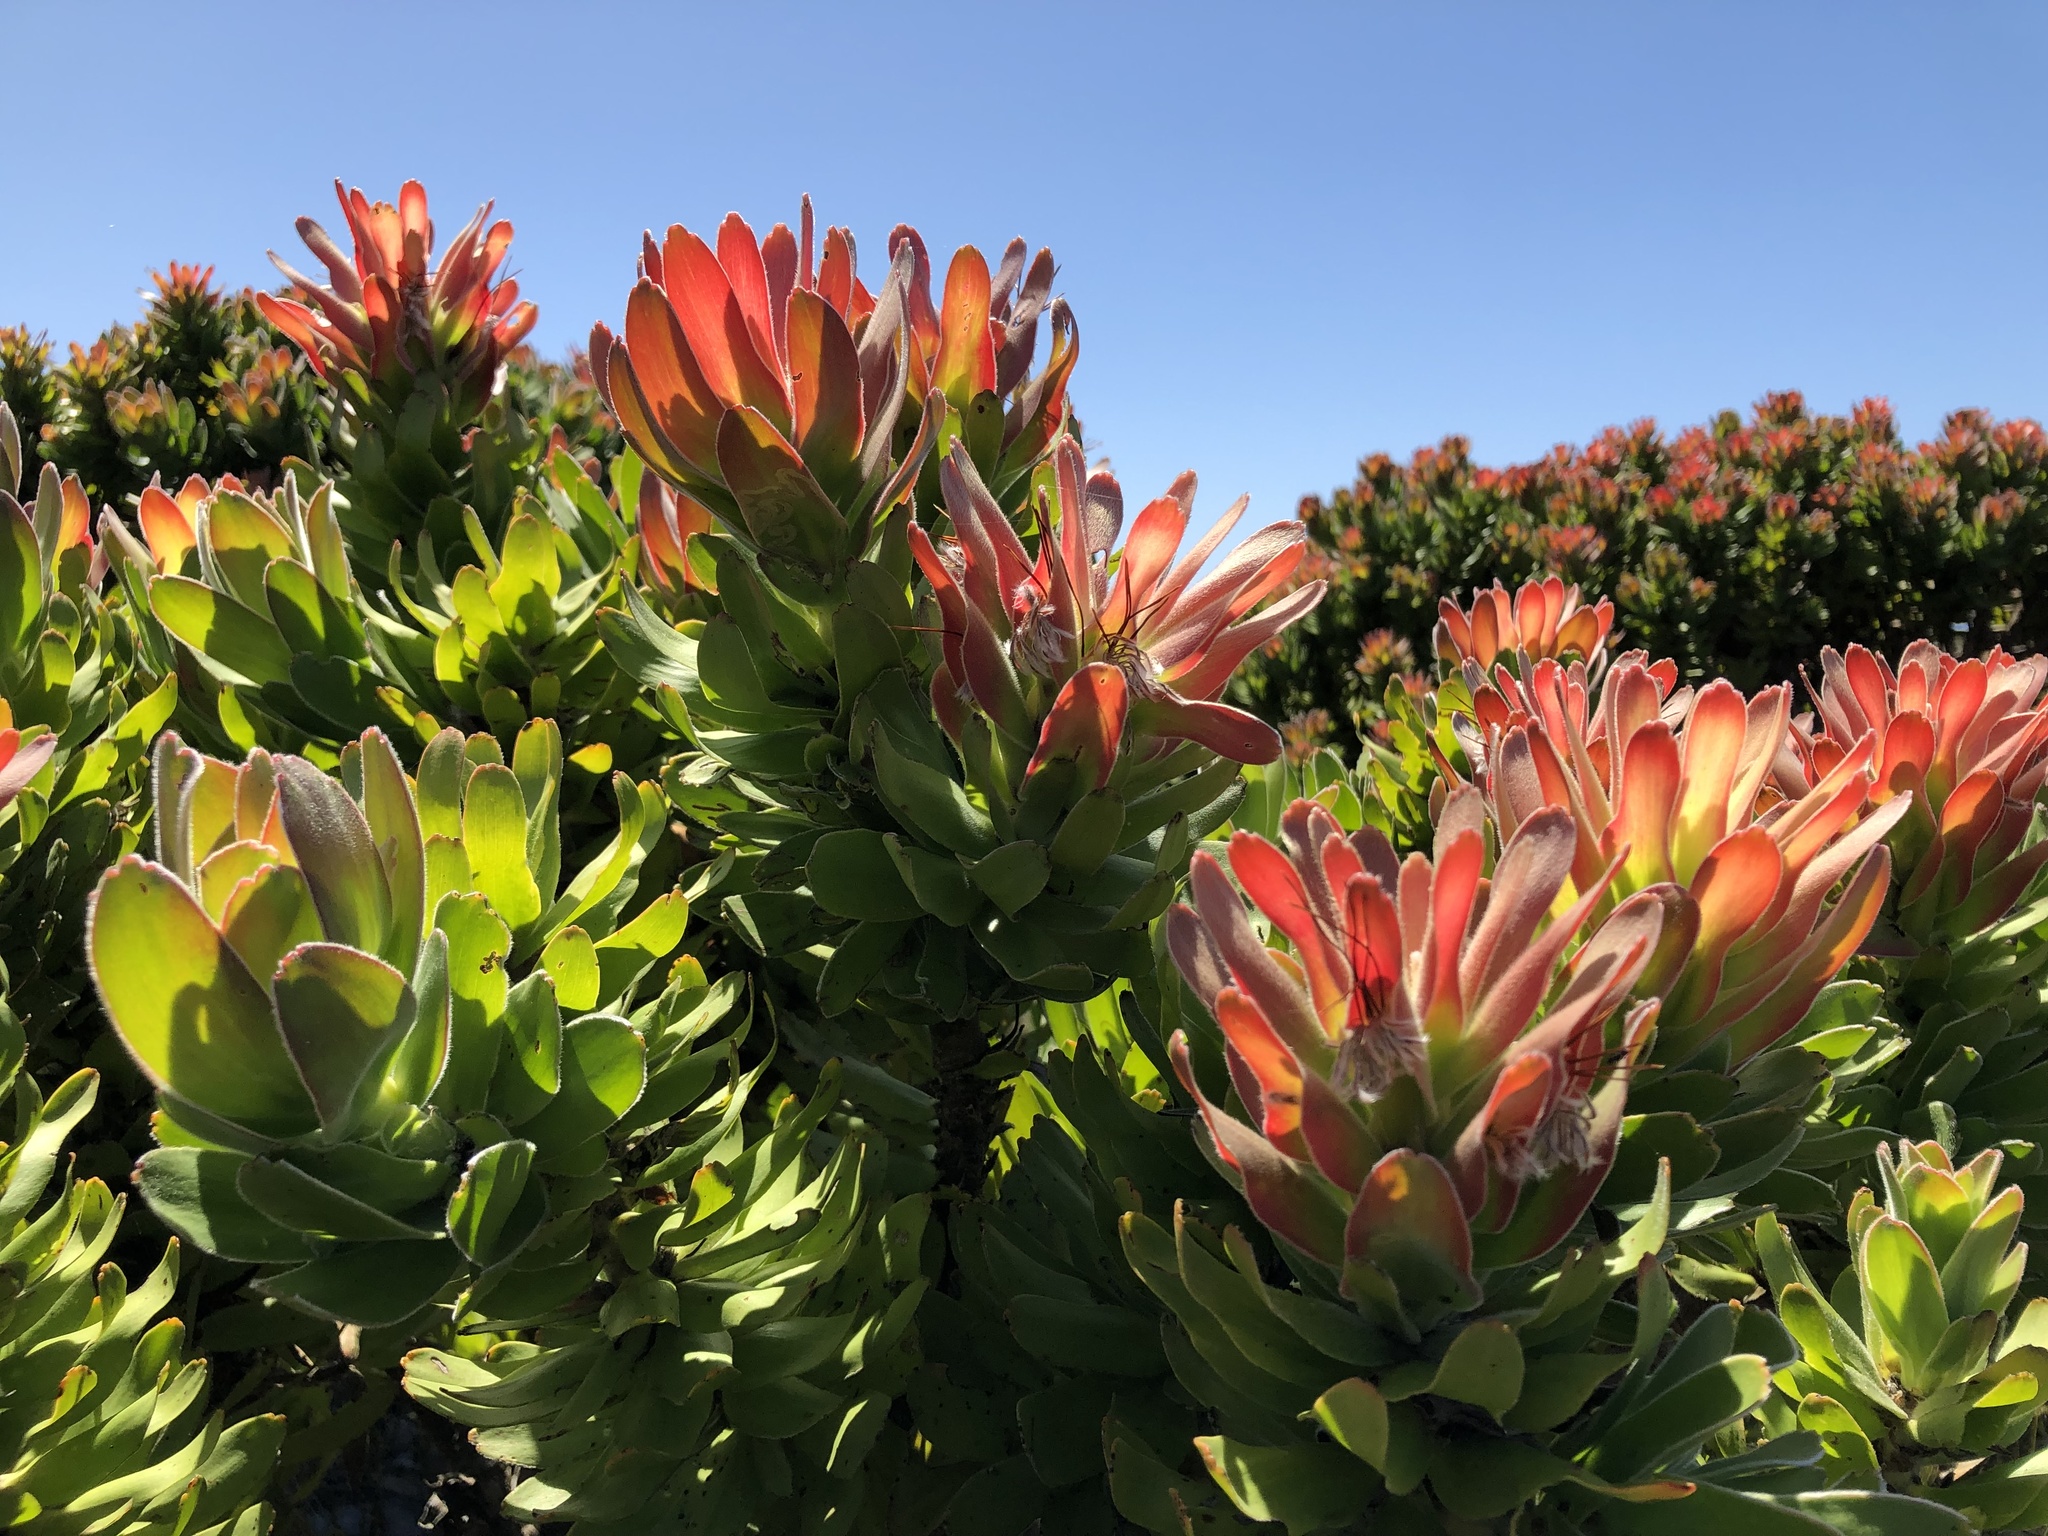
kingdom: Plantae
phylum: Tracheophyta
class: Magnoliopsida
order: Proteales
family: Proteaceae
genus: Mimetes
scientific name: Mimetes fimbriifolius
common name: Fringed bottlebrush
